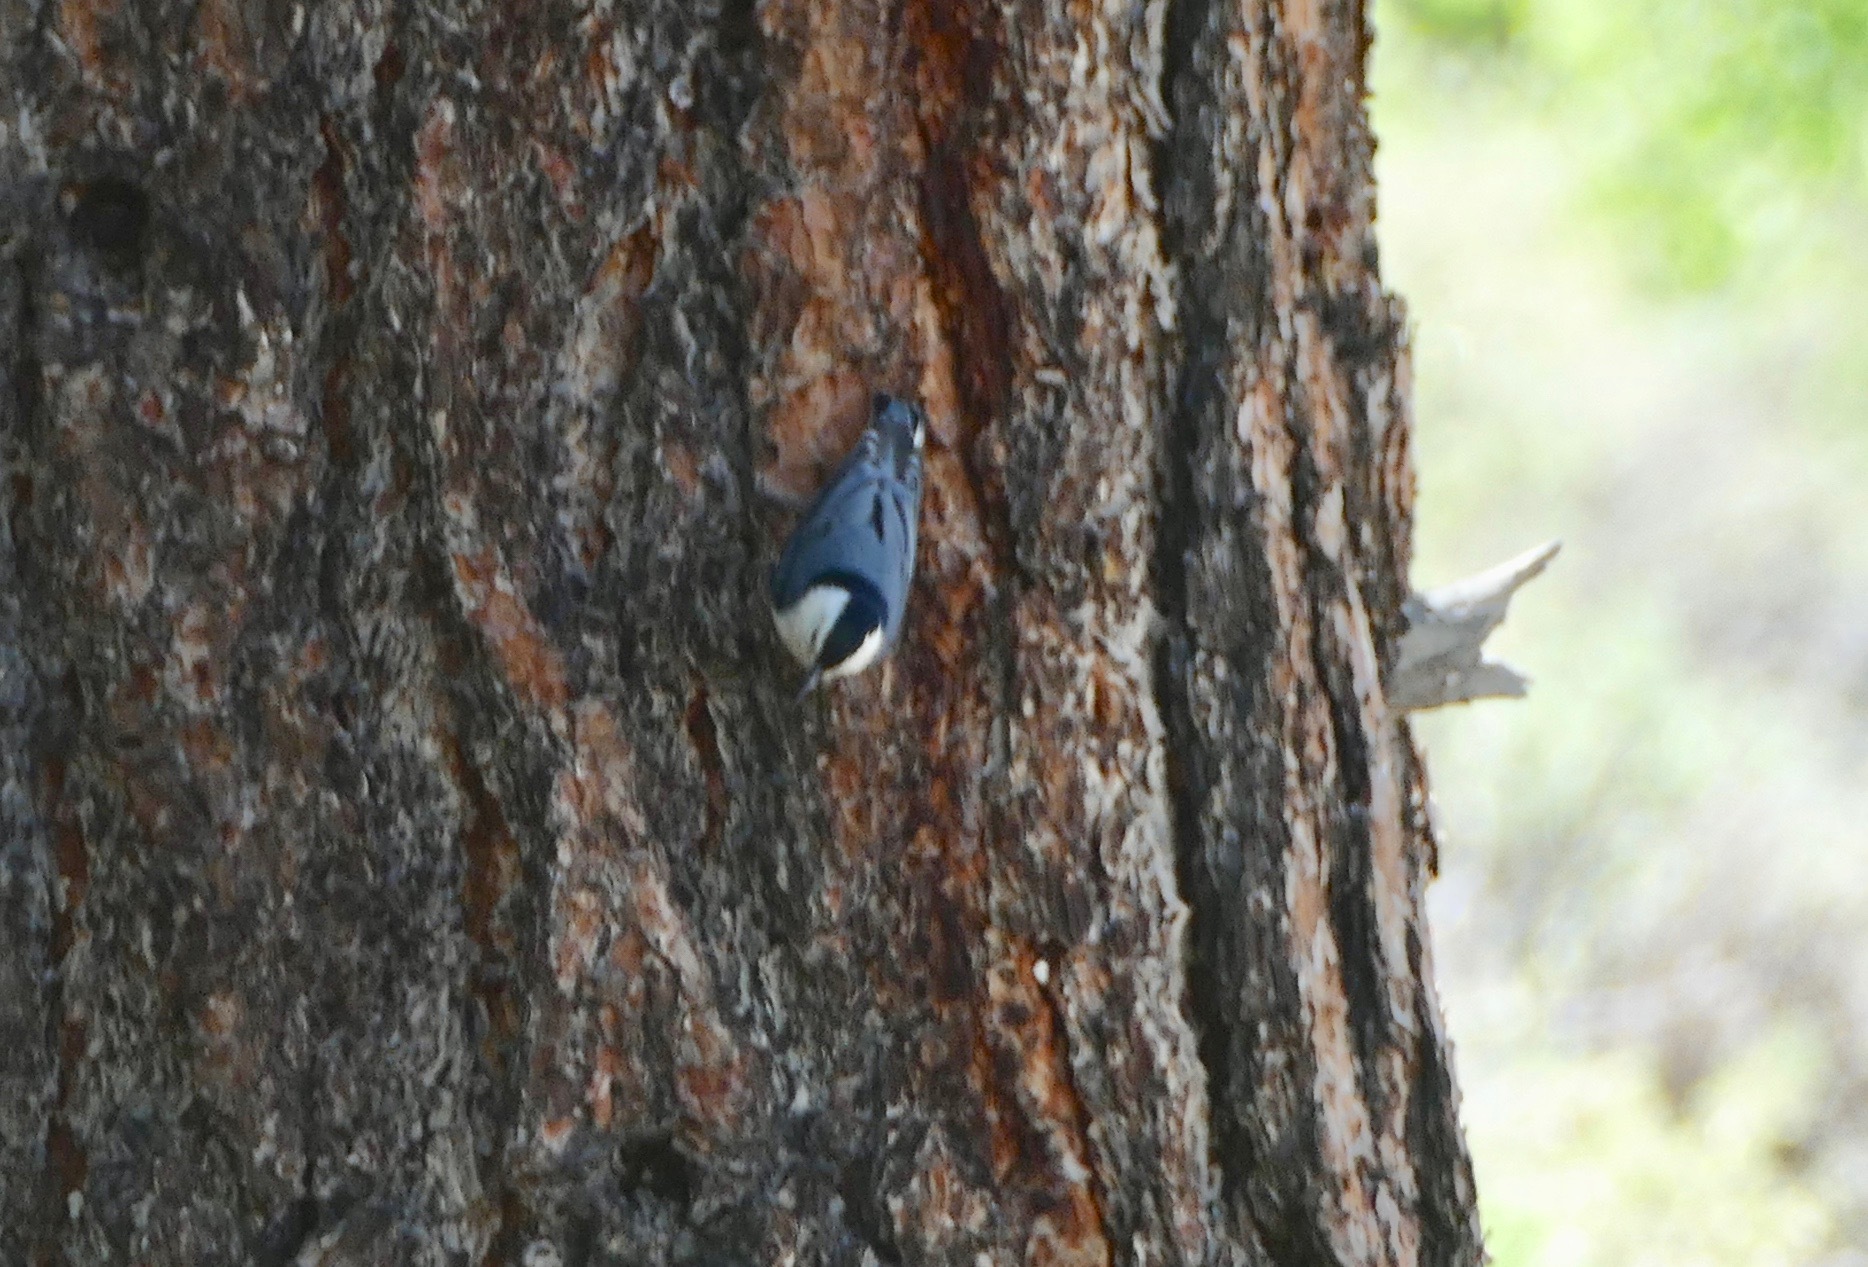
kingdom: Animalia
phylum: Chordata
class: Aves
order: Passeriformes
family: Sittidae
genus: Sitta
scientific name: Sitta carolinensis
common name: White-breasted nuthatch
